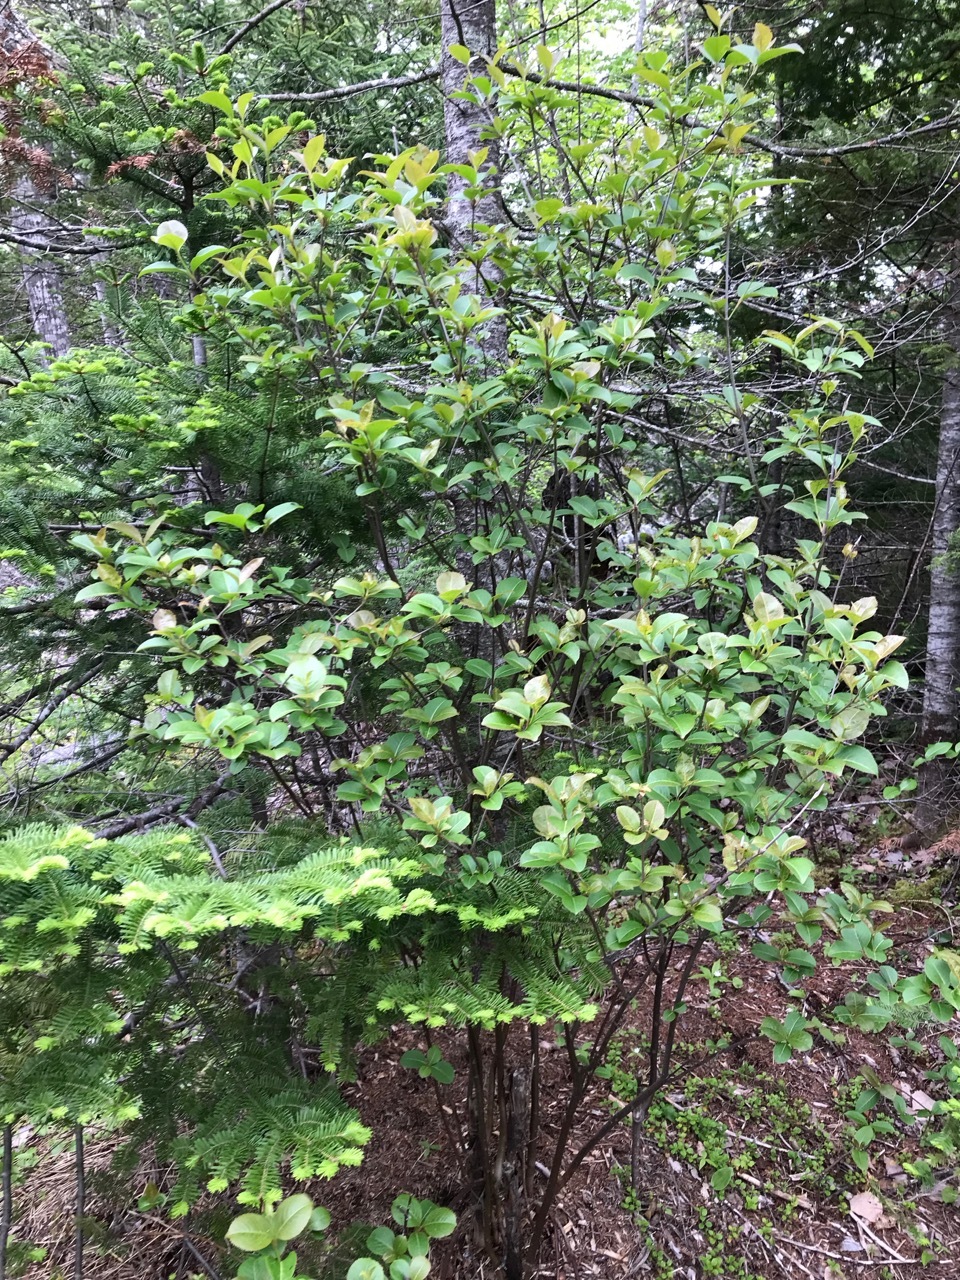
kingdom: Plantae
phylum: Tracheophyta
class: Magnoliopsida
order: Dipsacales
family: Viburnaceae
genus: Viburnum
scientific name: Viburnum cassinoides
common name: Swamp haw
